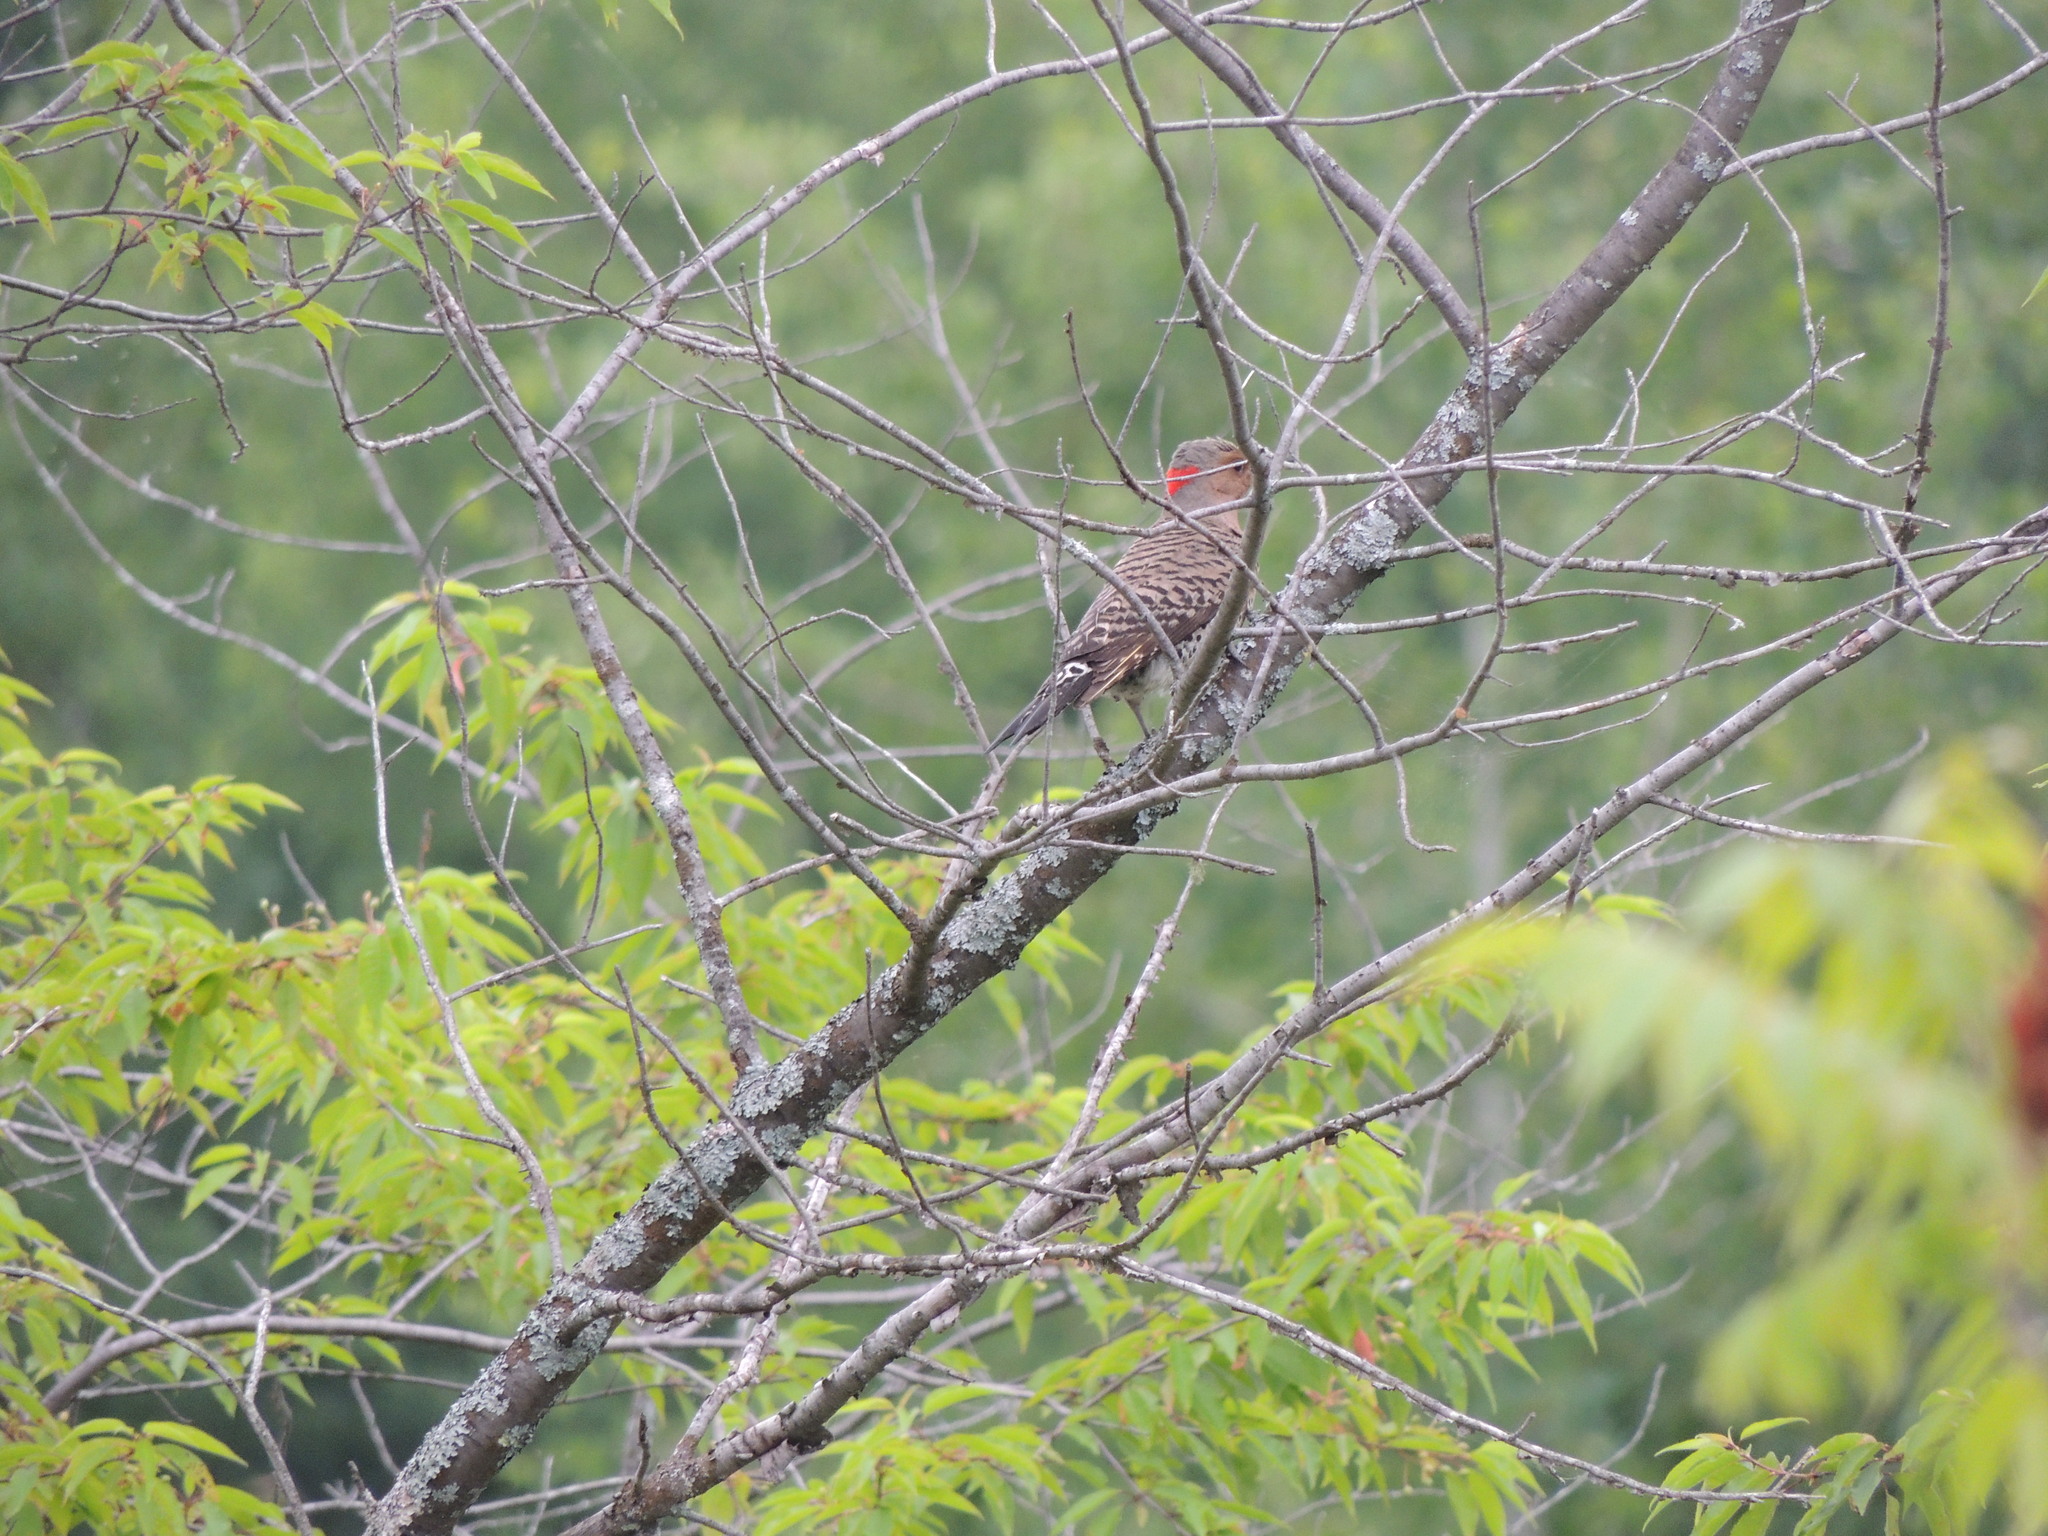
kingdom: Animalia
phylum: Chordata
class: Aves
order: Piciformes
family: Picidae
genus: Colaptes
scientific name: Colaptes auratus
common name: Northern flicker
